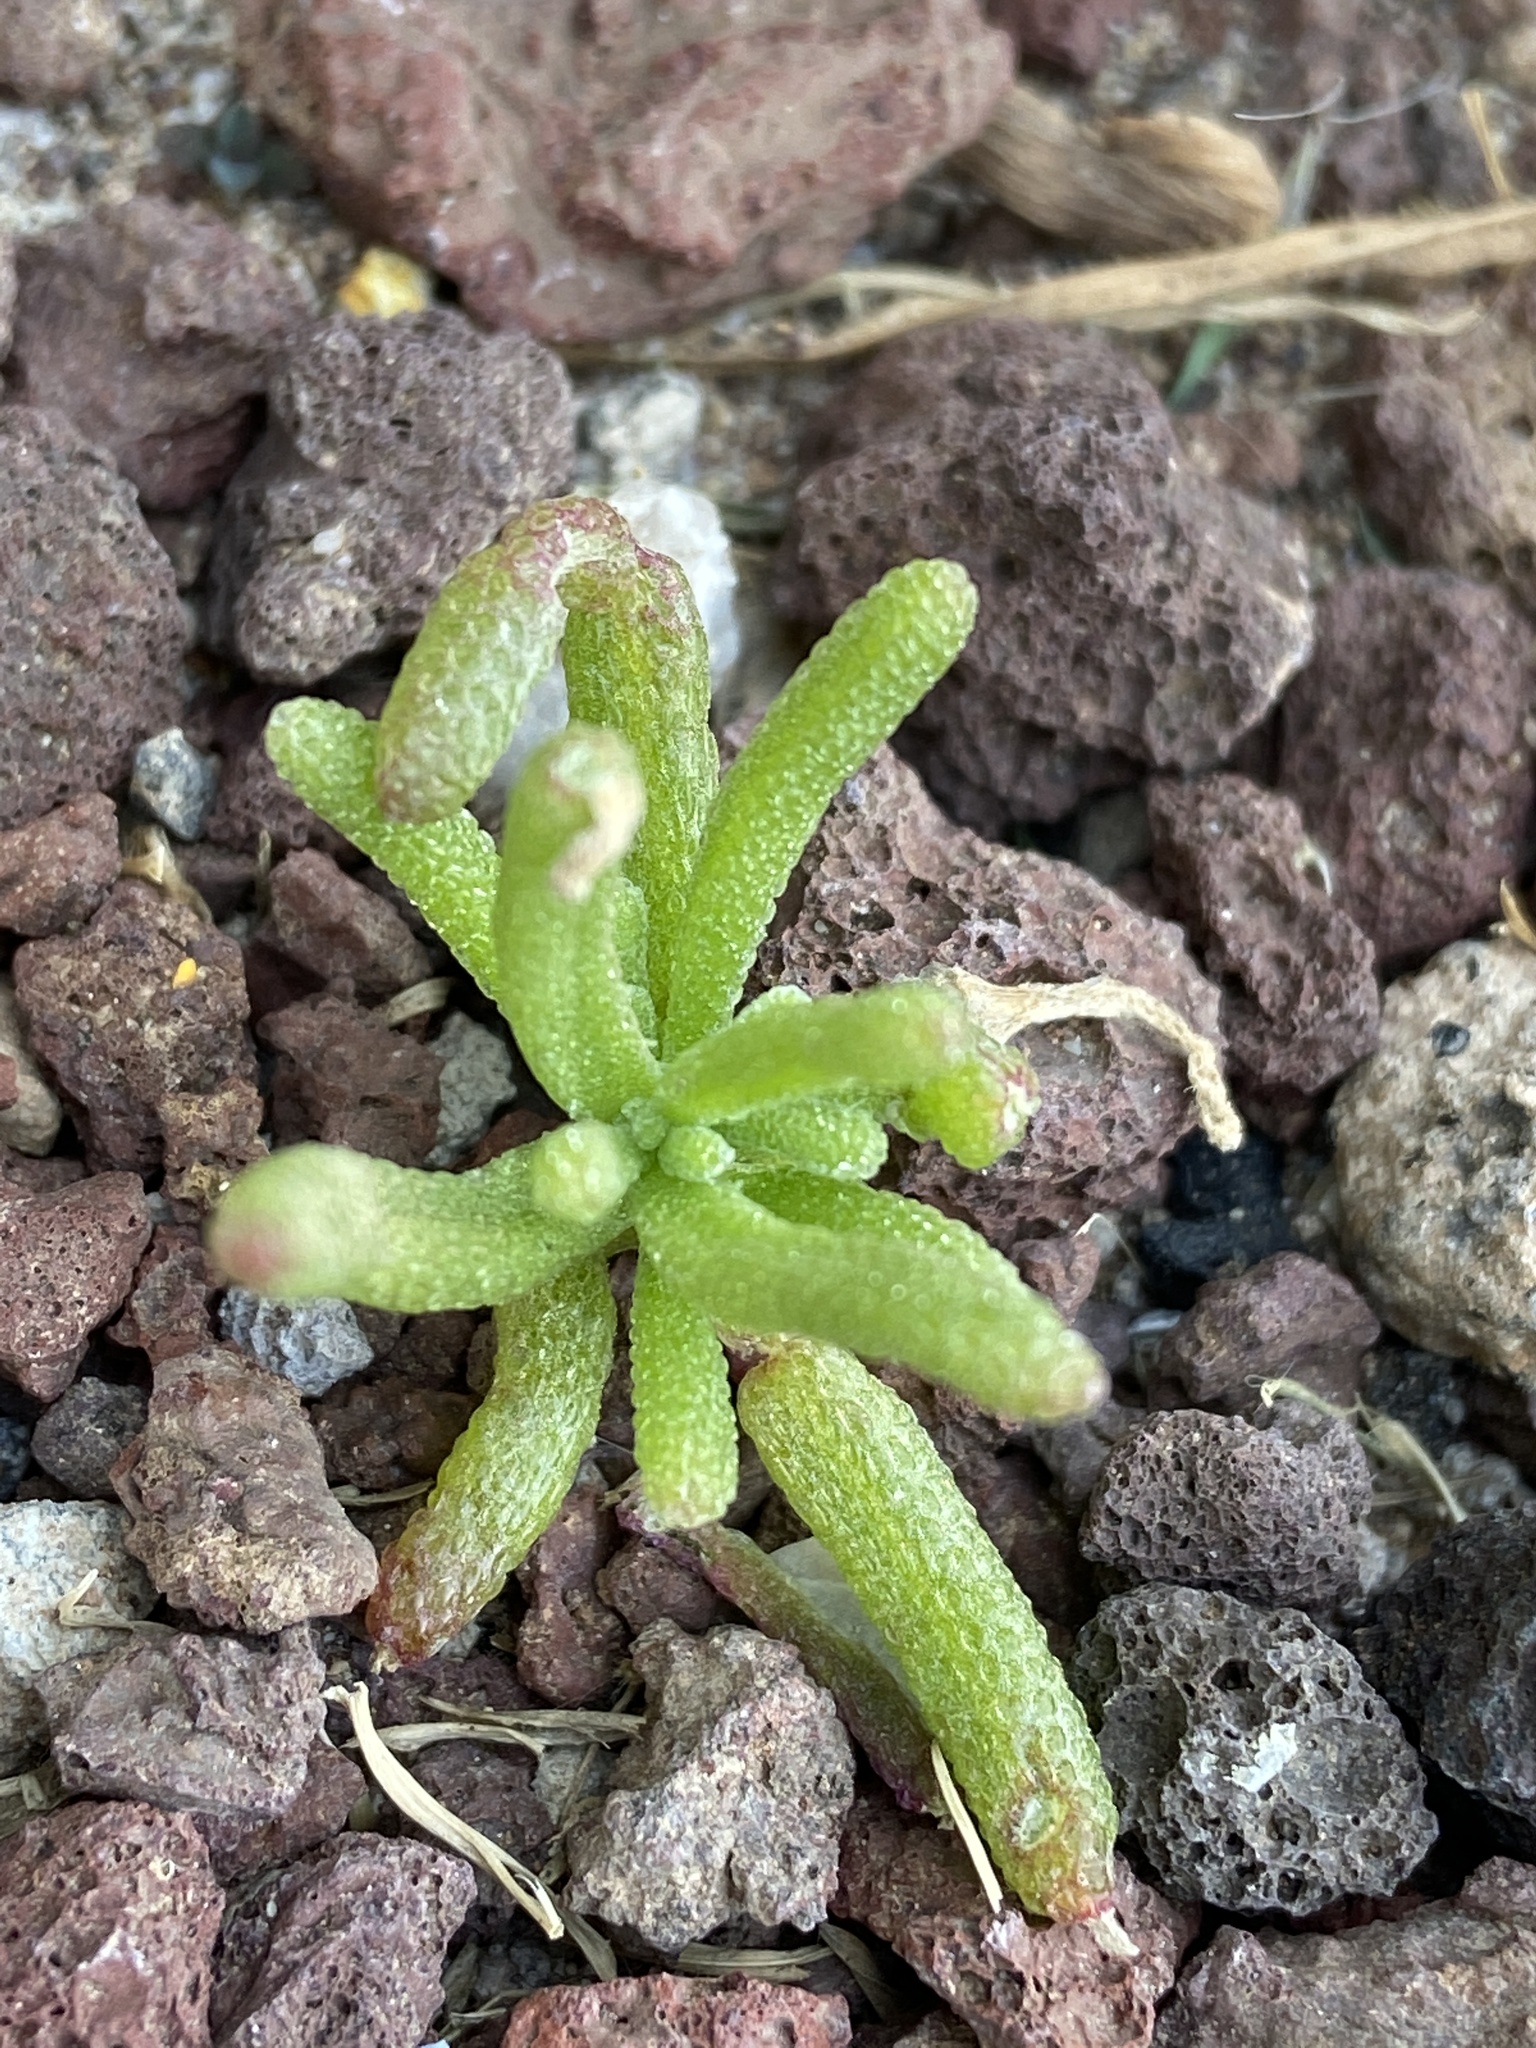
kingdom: Plantae
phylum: Tracheophyta
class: Magnoliopsida
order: Caryophyllales
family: Aizoaceae
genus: Mesembryanthemum
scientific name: Mesembryanthemum nodiflorum
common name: Slenderleaf iceplant
